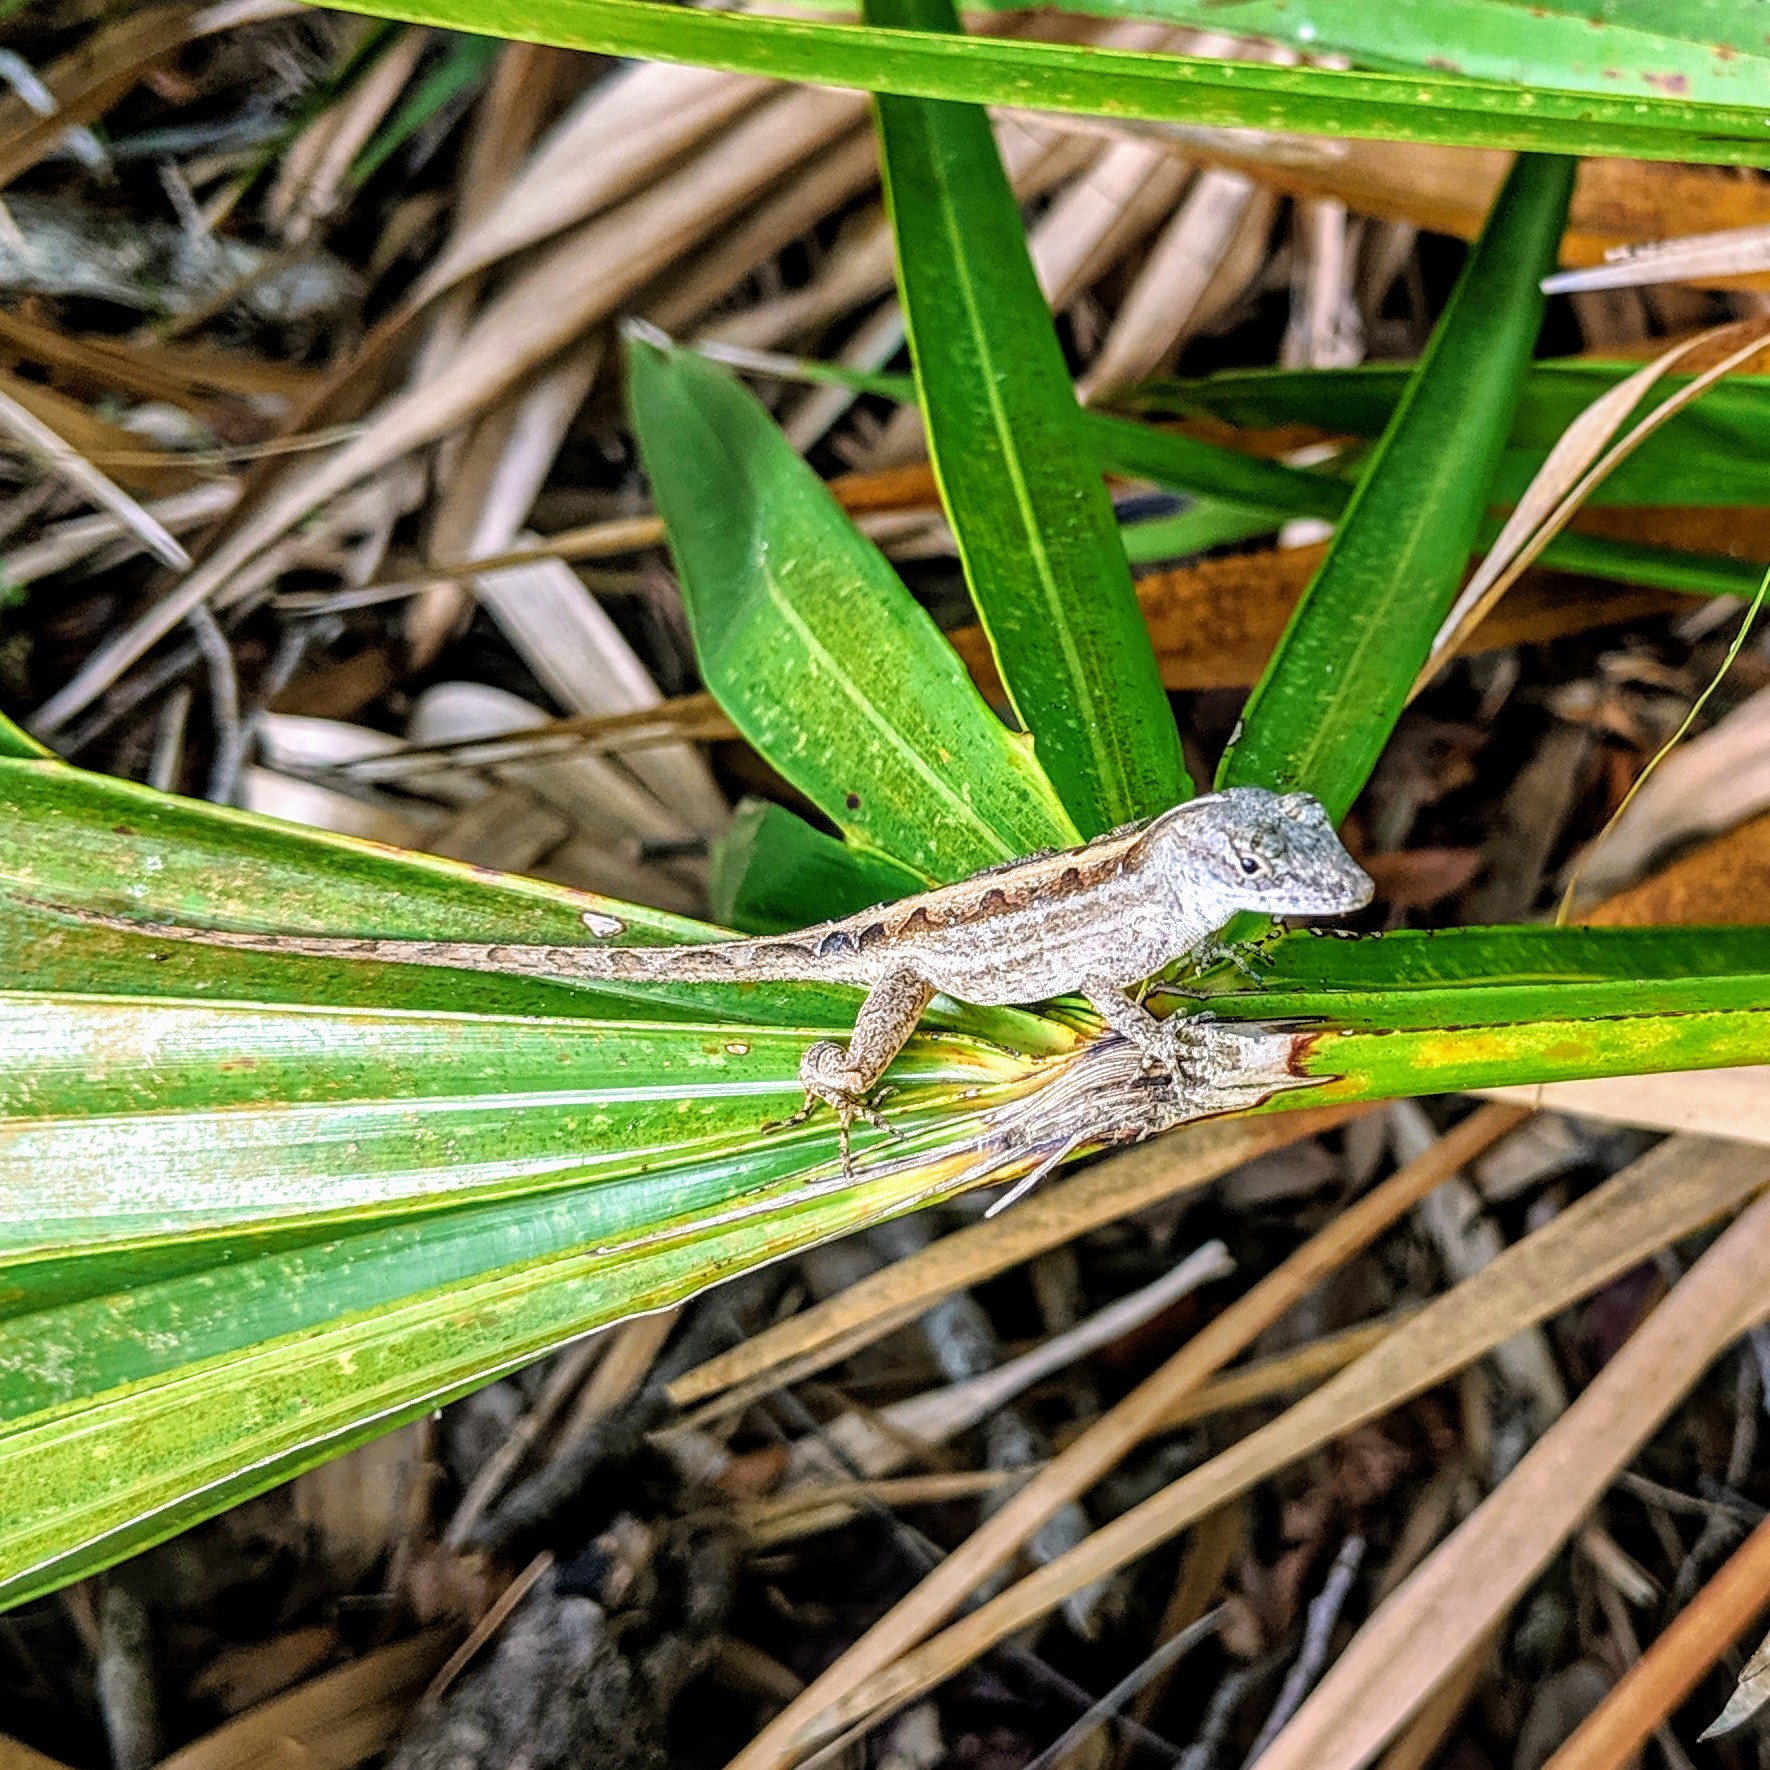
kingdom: Animalia
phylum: Chordata
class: Squamata
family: Dactyloidae
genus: Anolis
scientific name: Anolis sagrei
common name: Brown anole
